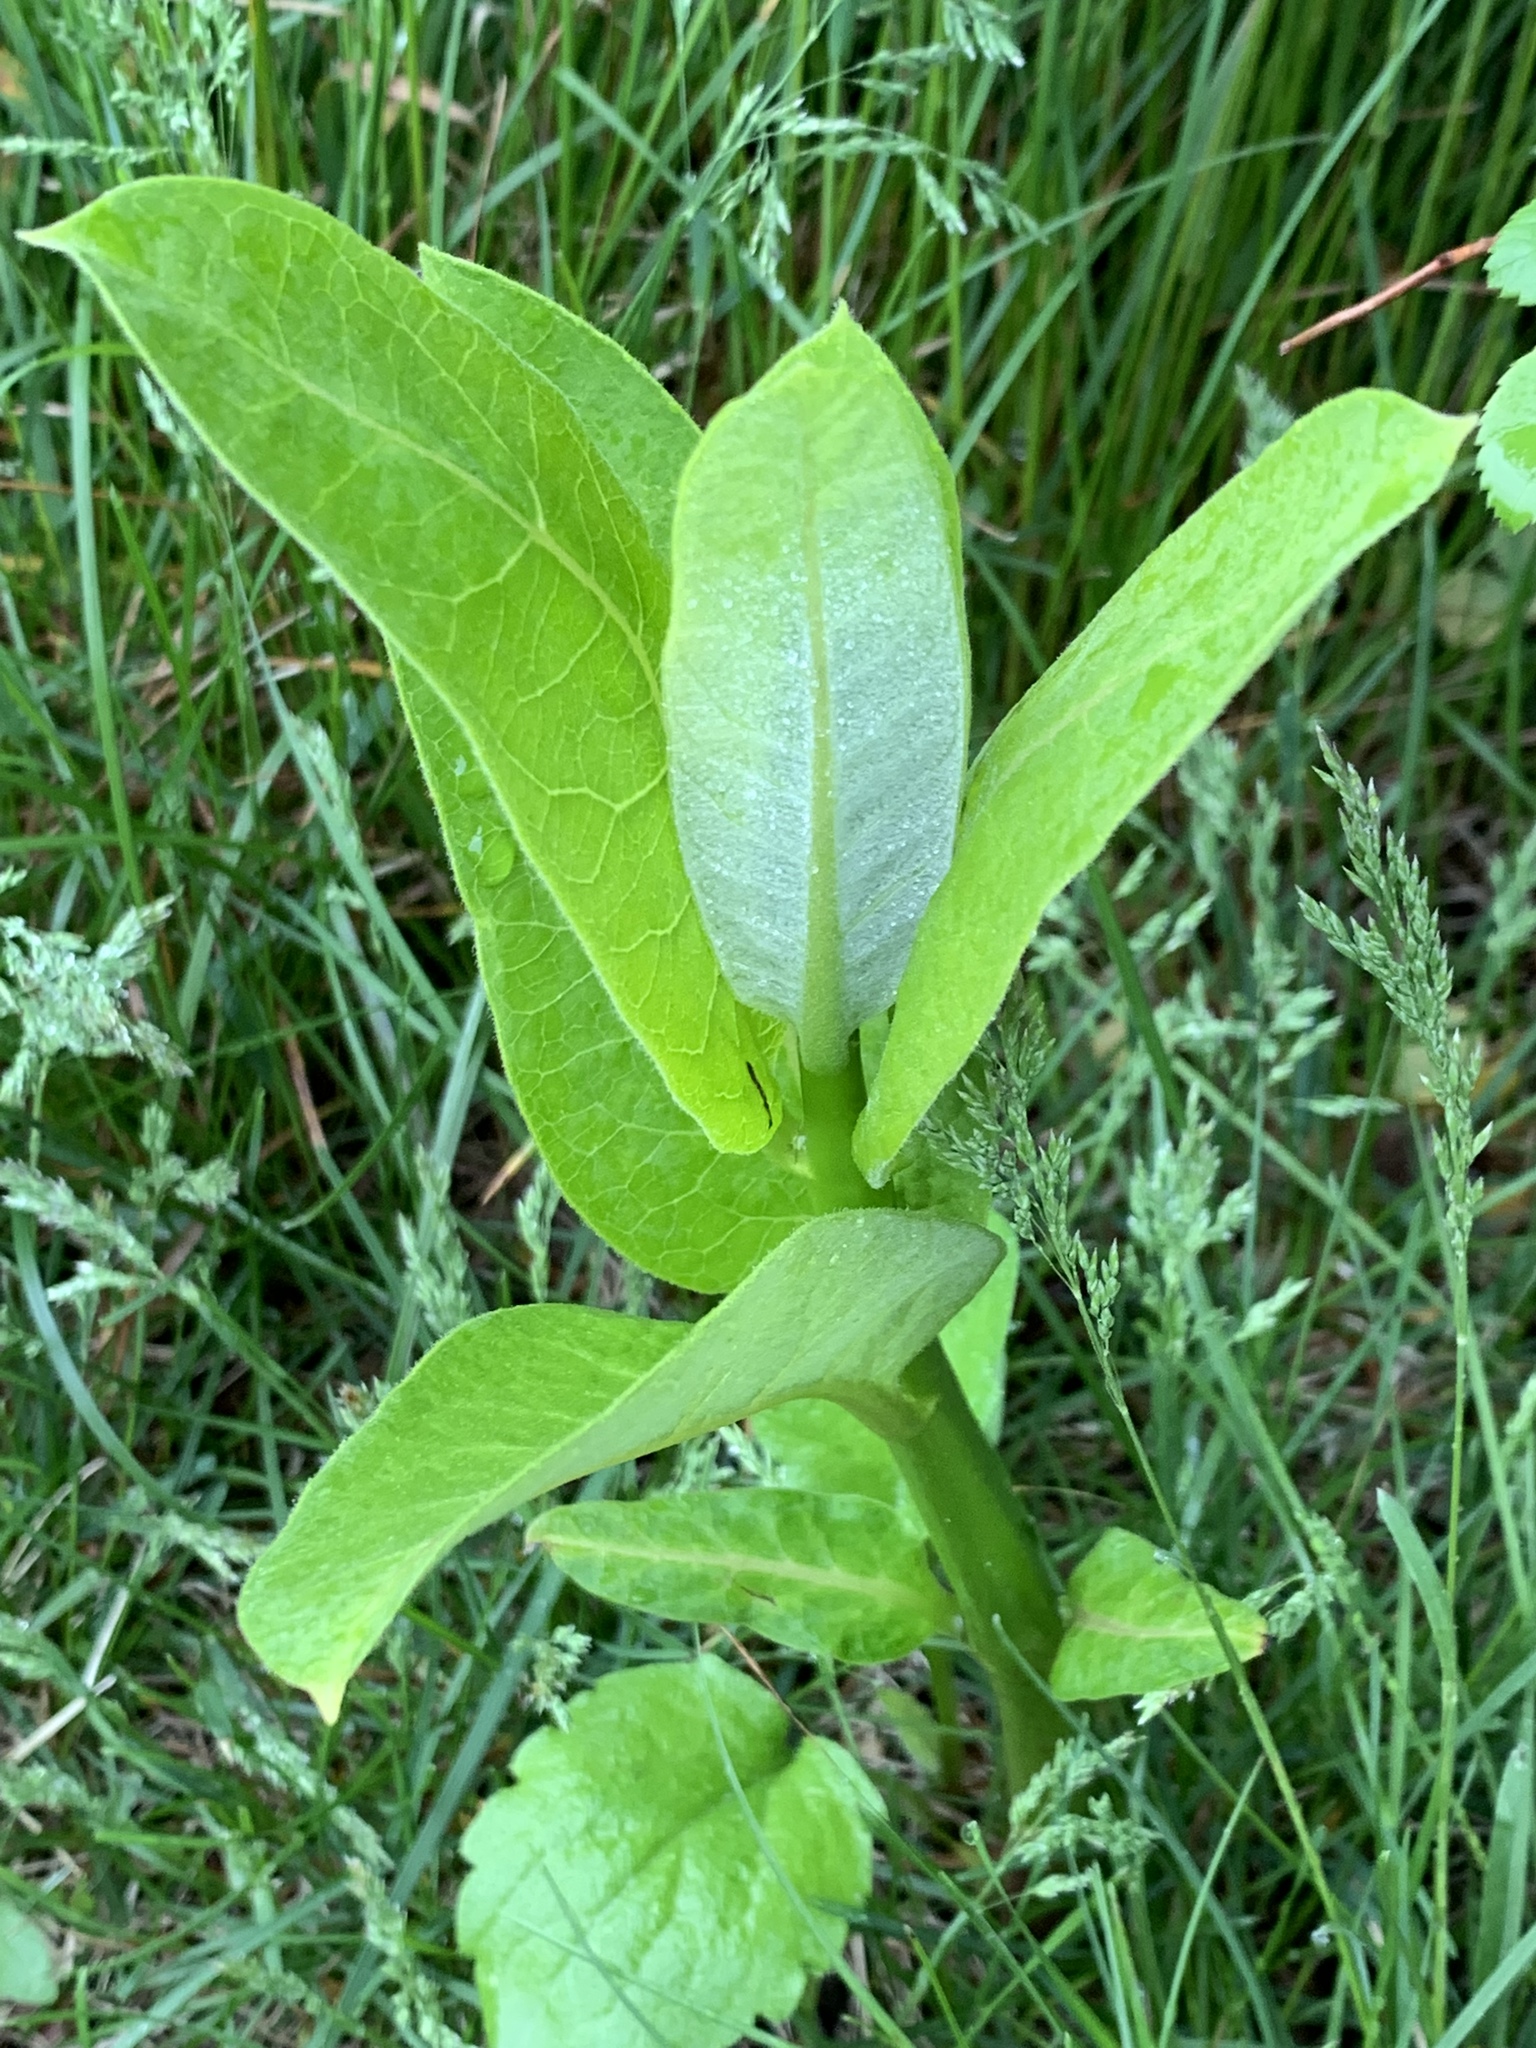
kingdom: Plantae
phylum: Tracheophyta
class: Magnoliopsida
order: Gentianales
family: Apocynaceae
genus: Asclepias
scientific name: Asclepias syriaca
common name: Common milkweed
